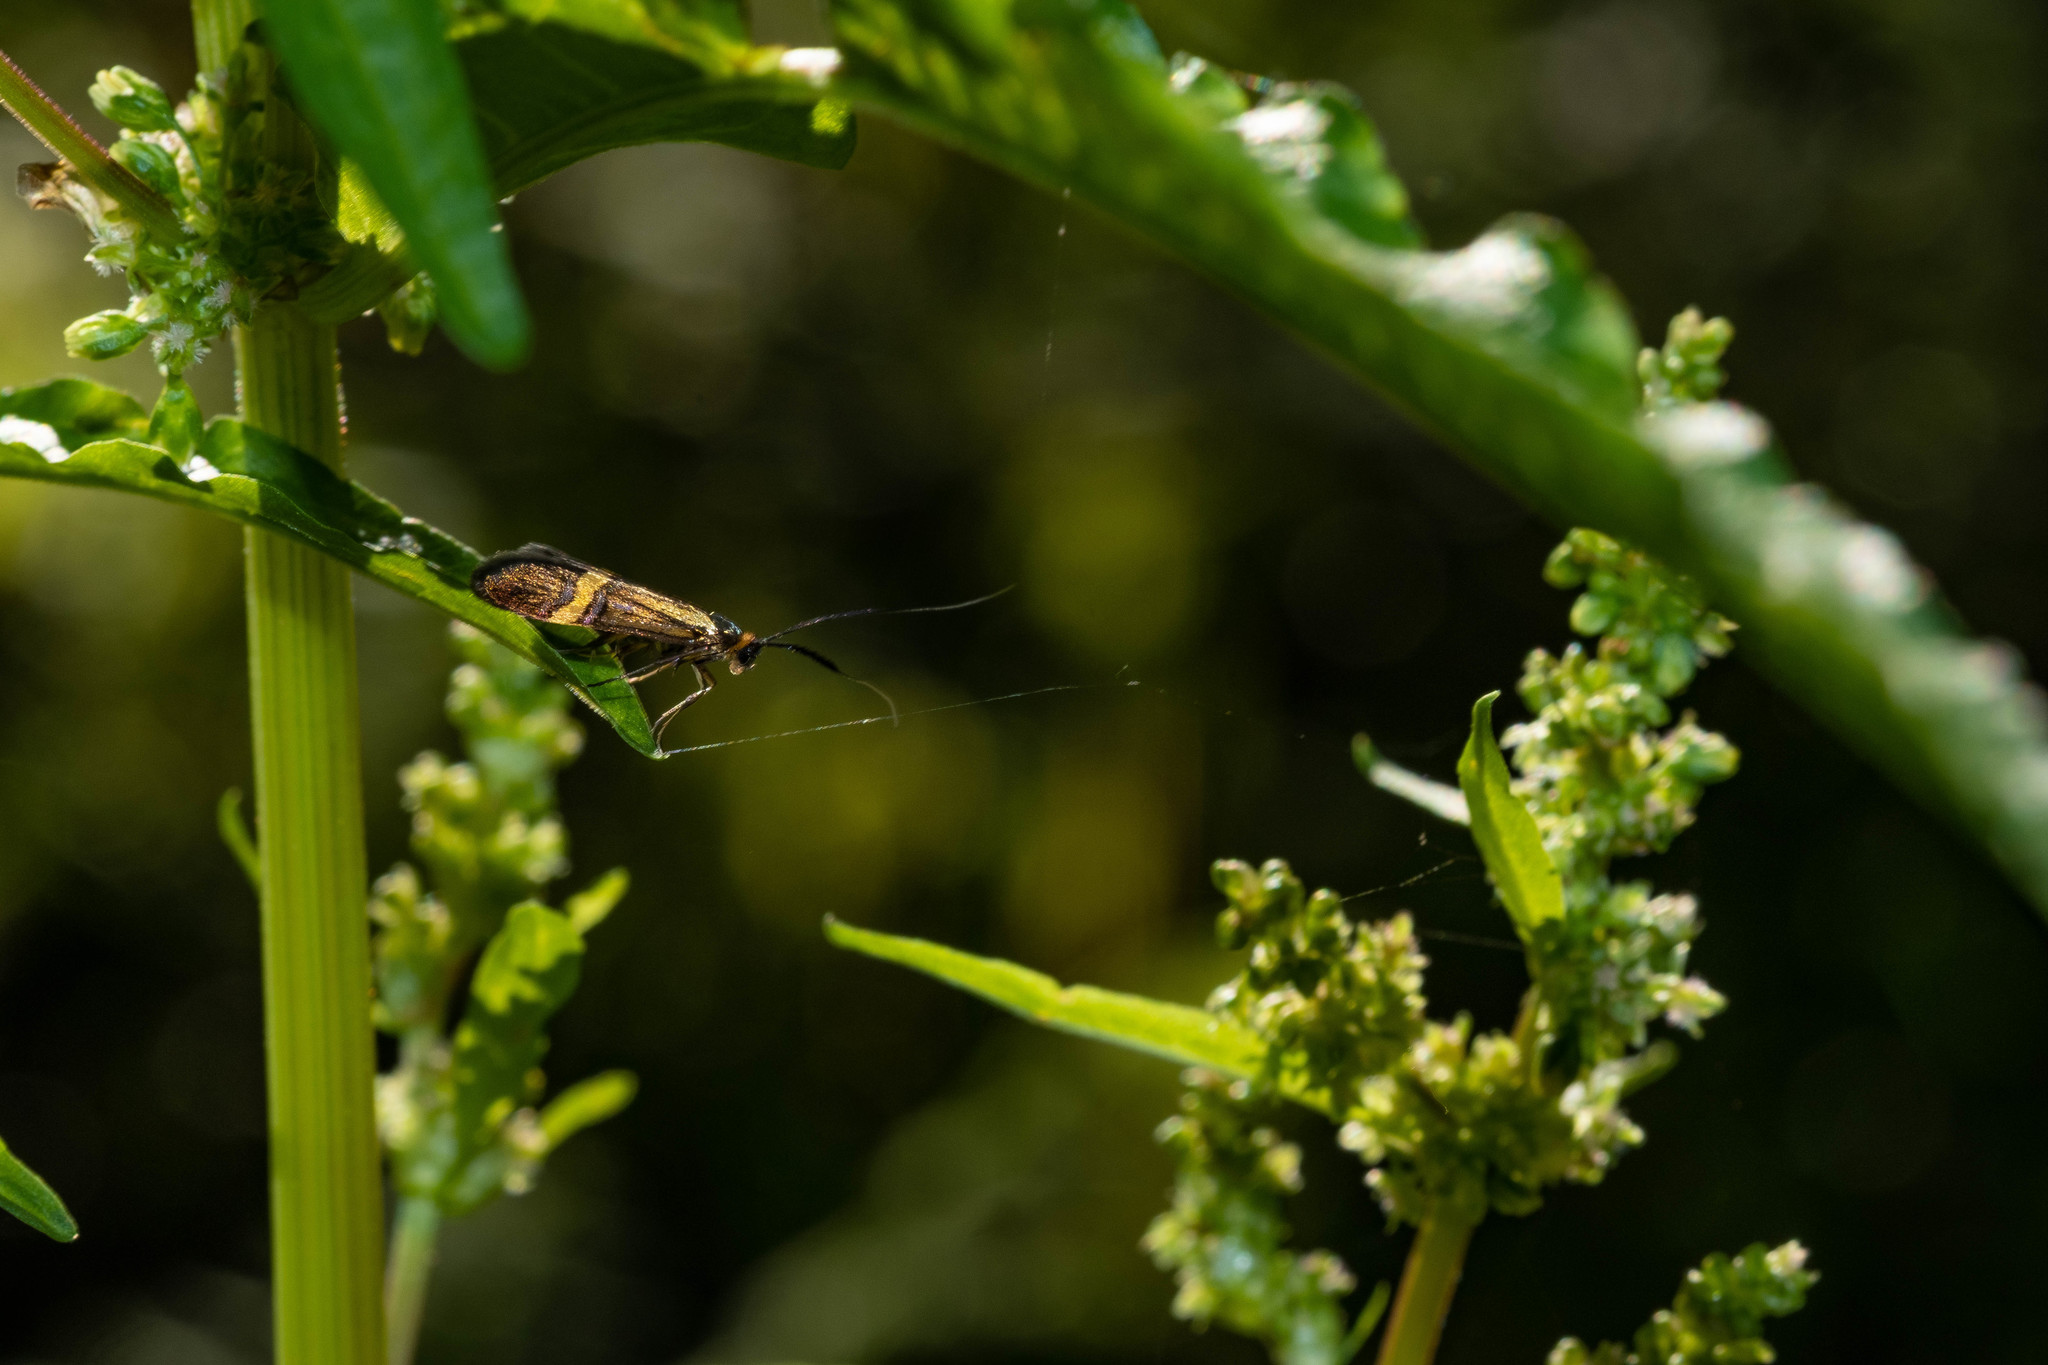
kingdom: Animalia
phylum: Arthropoda
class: Insecta
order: Lepidoptera
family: Adelidae
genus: Nemophora
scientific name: Nemophora degeerella
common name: Yellow-barred long-horn
